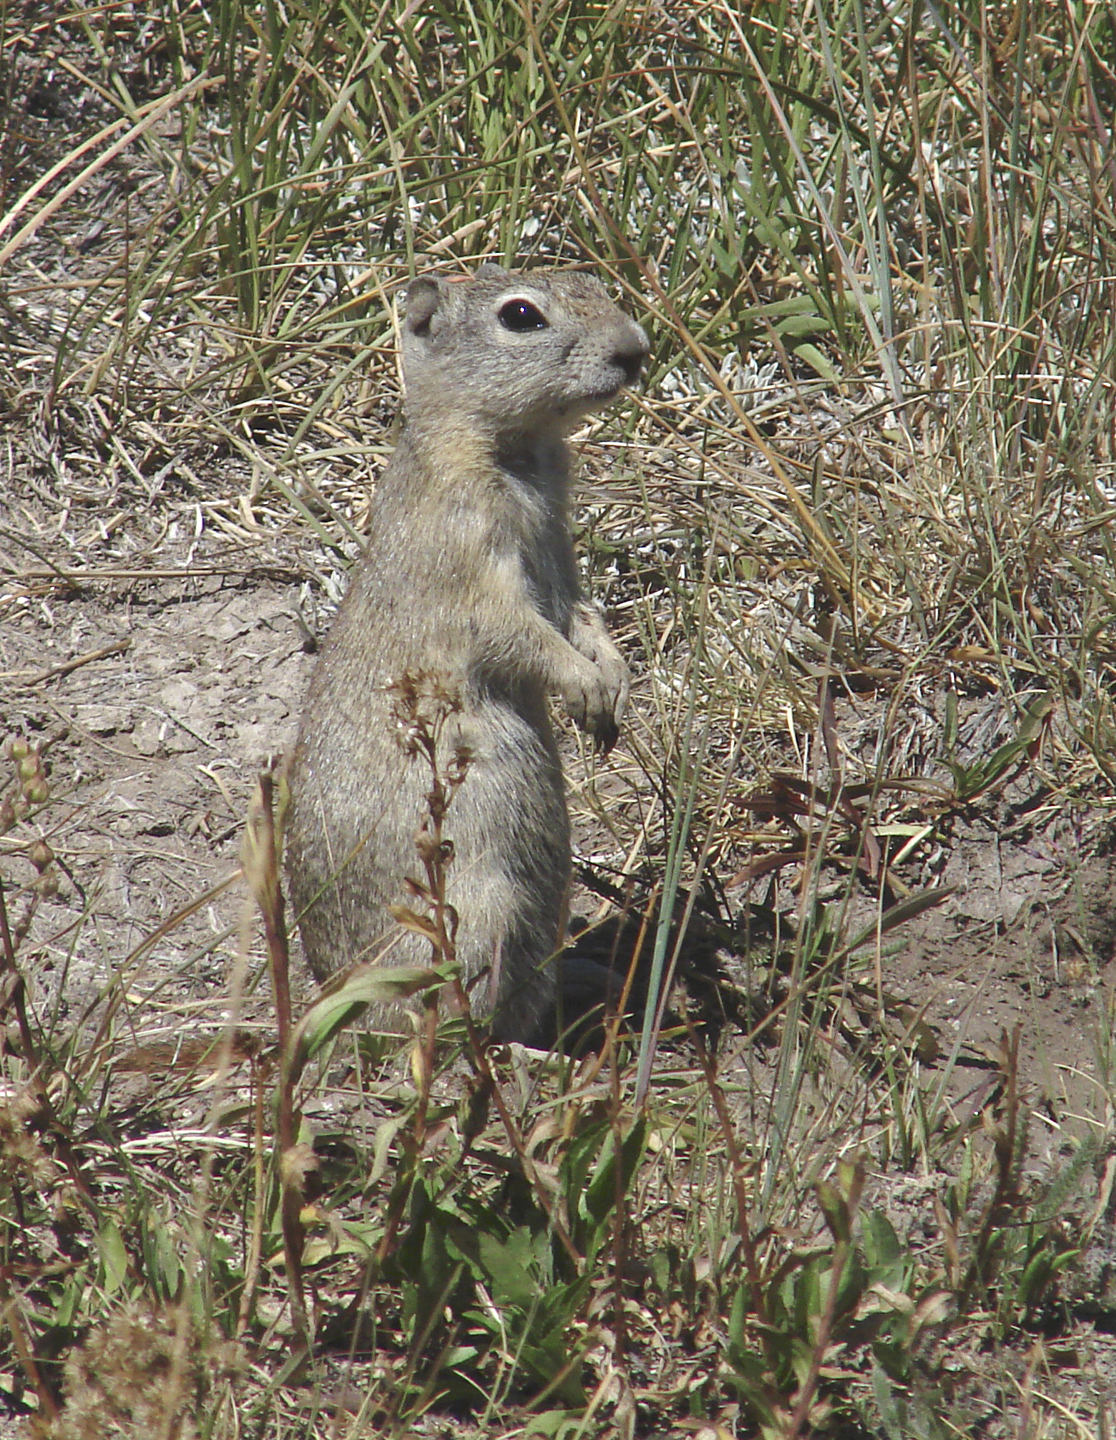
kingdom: Animalia
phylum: Chordata
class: Mammalia
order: Rodentia
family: Sciuridae
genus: Urocitellus
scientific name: Urocitellus beldingi
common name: Belding's ground squirrel
